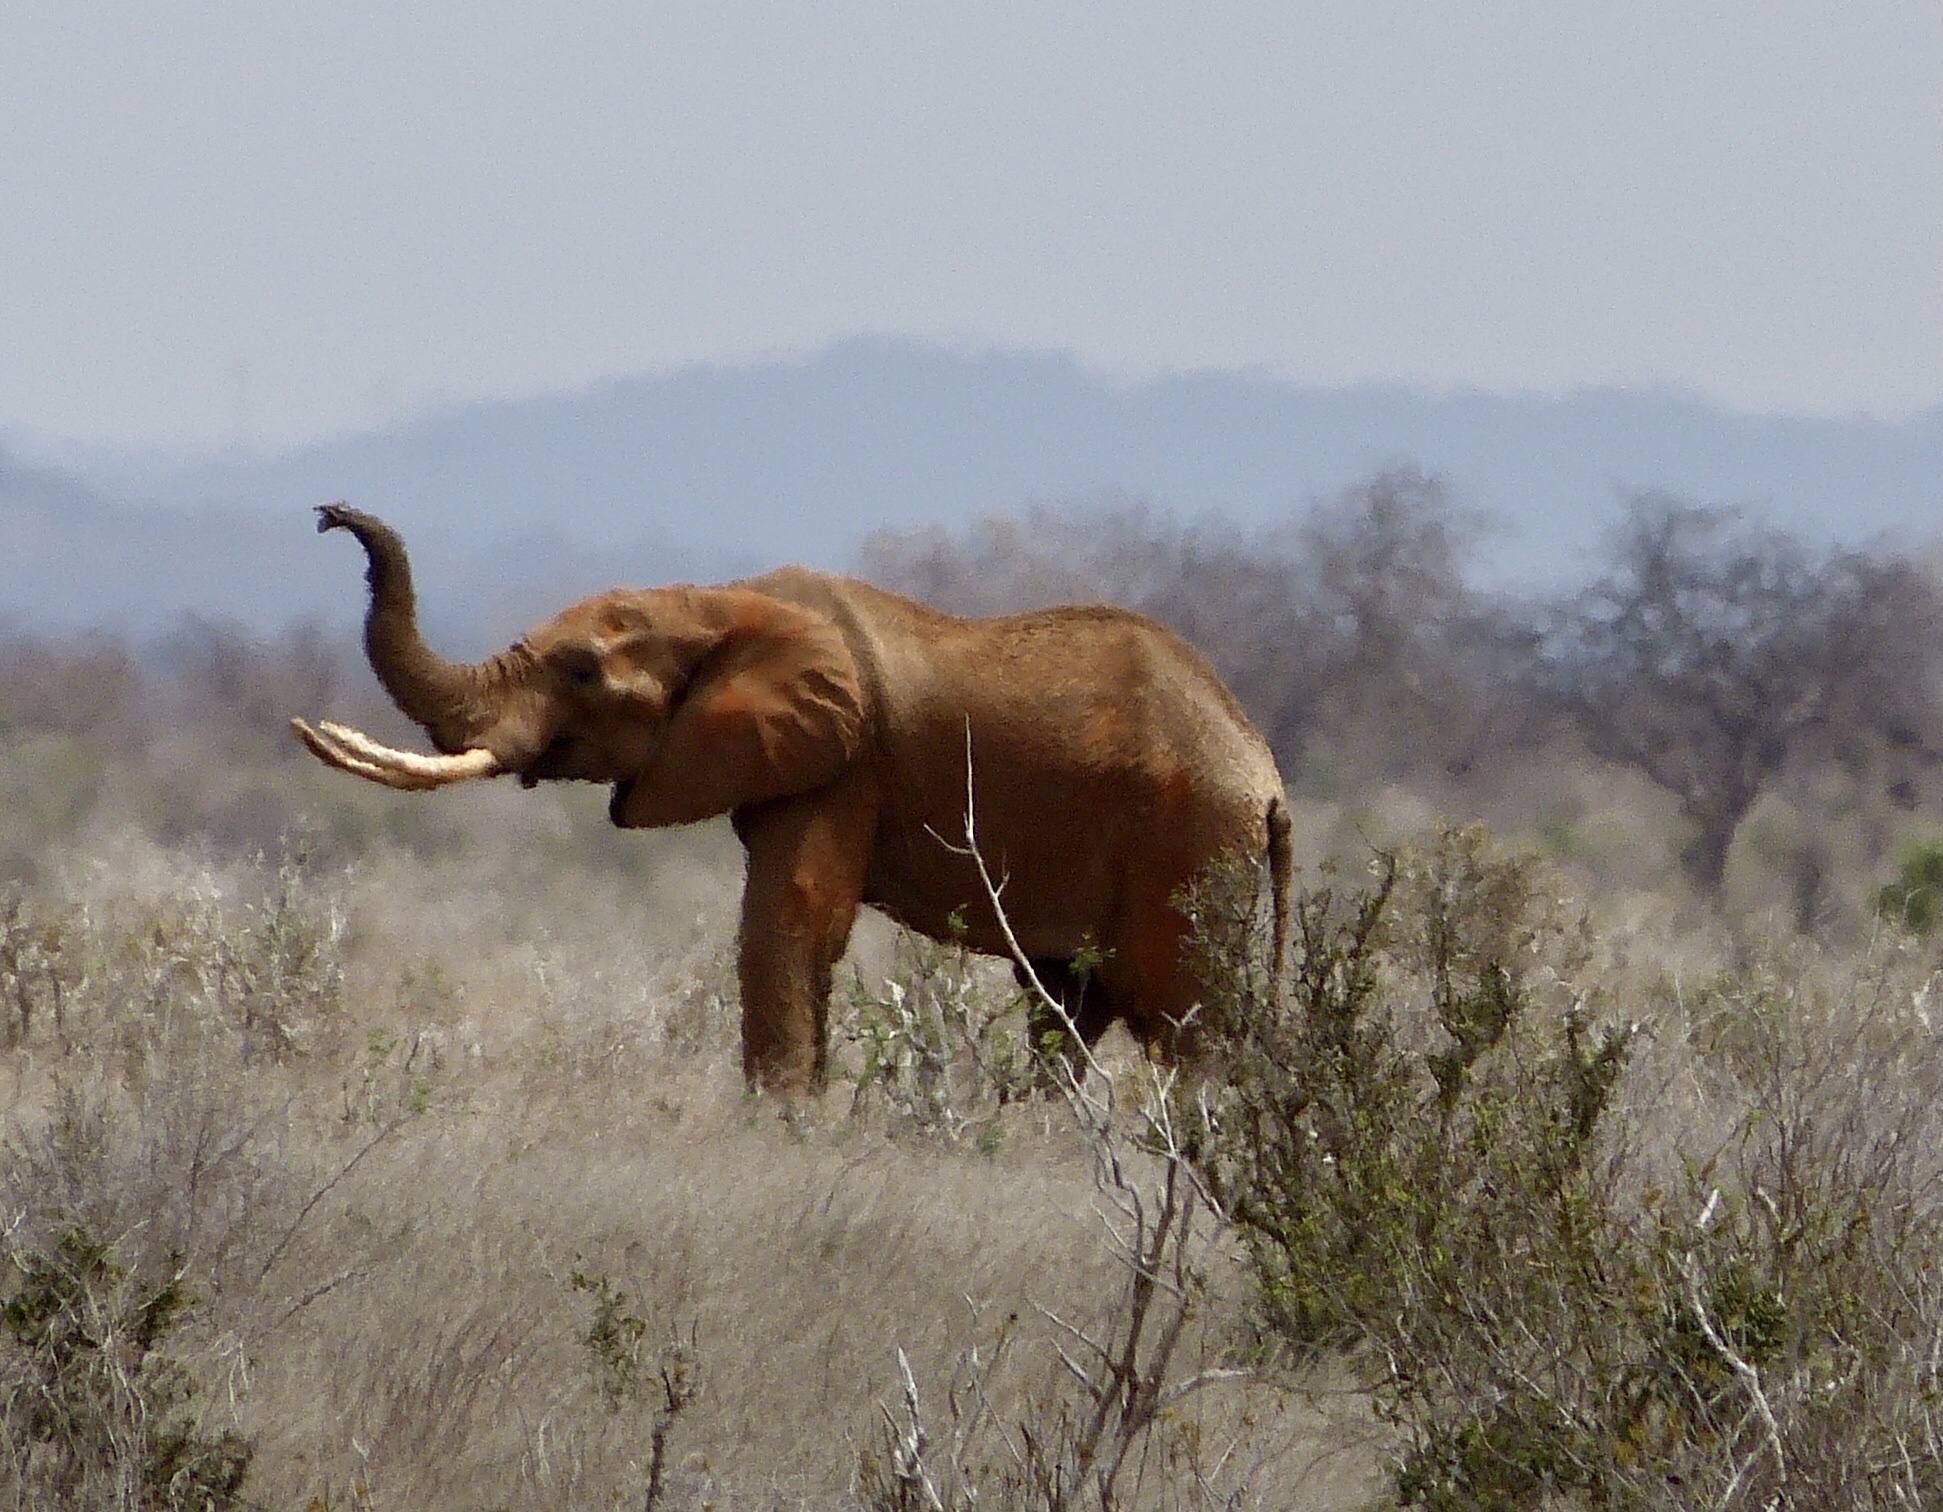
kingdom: Animalia
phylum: Chordata
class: Mammalia
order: Proboscidea
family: Elephantidae
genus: Loxodonta
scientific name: Loxodonta africana
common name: African elephant
